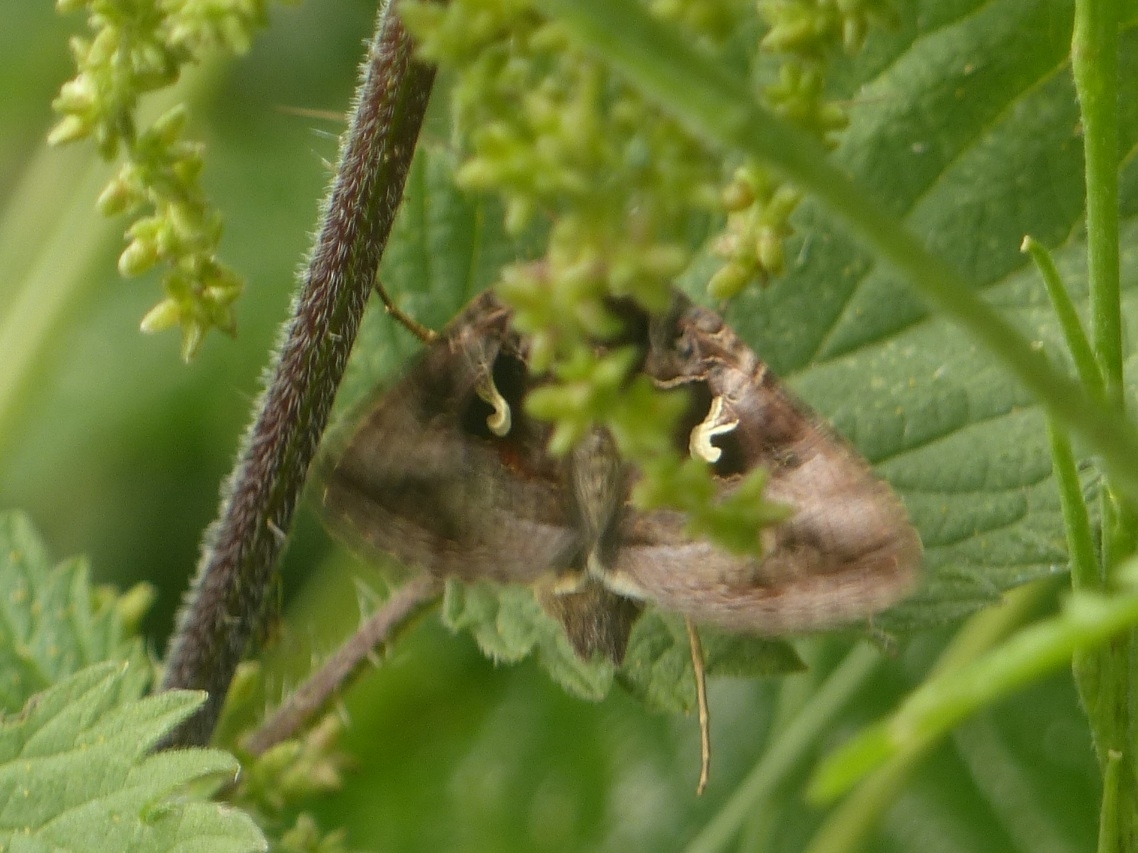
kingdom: Animalia
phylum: Arthropoda
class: Insecta
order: Lepidoptera
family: Noctuidae
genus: Autographa
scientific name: Autographa gamma
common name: Silver y
